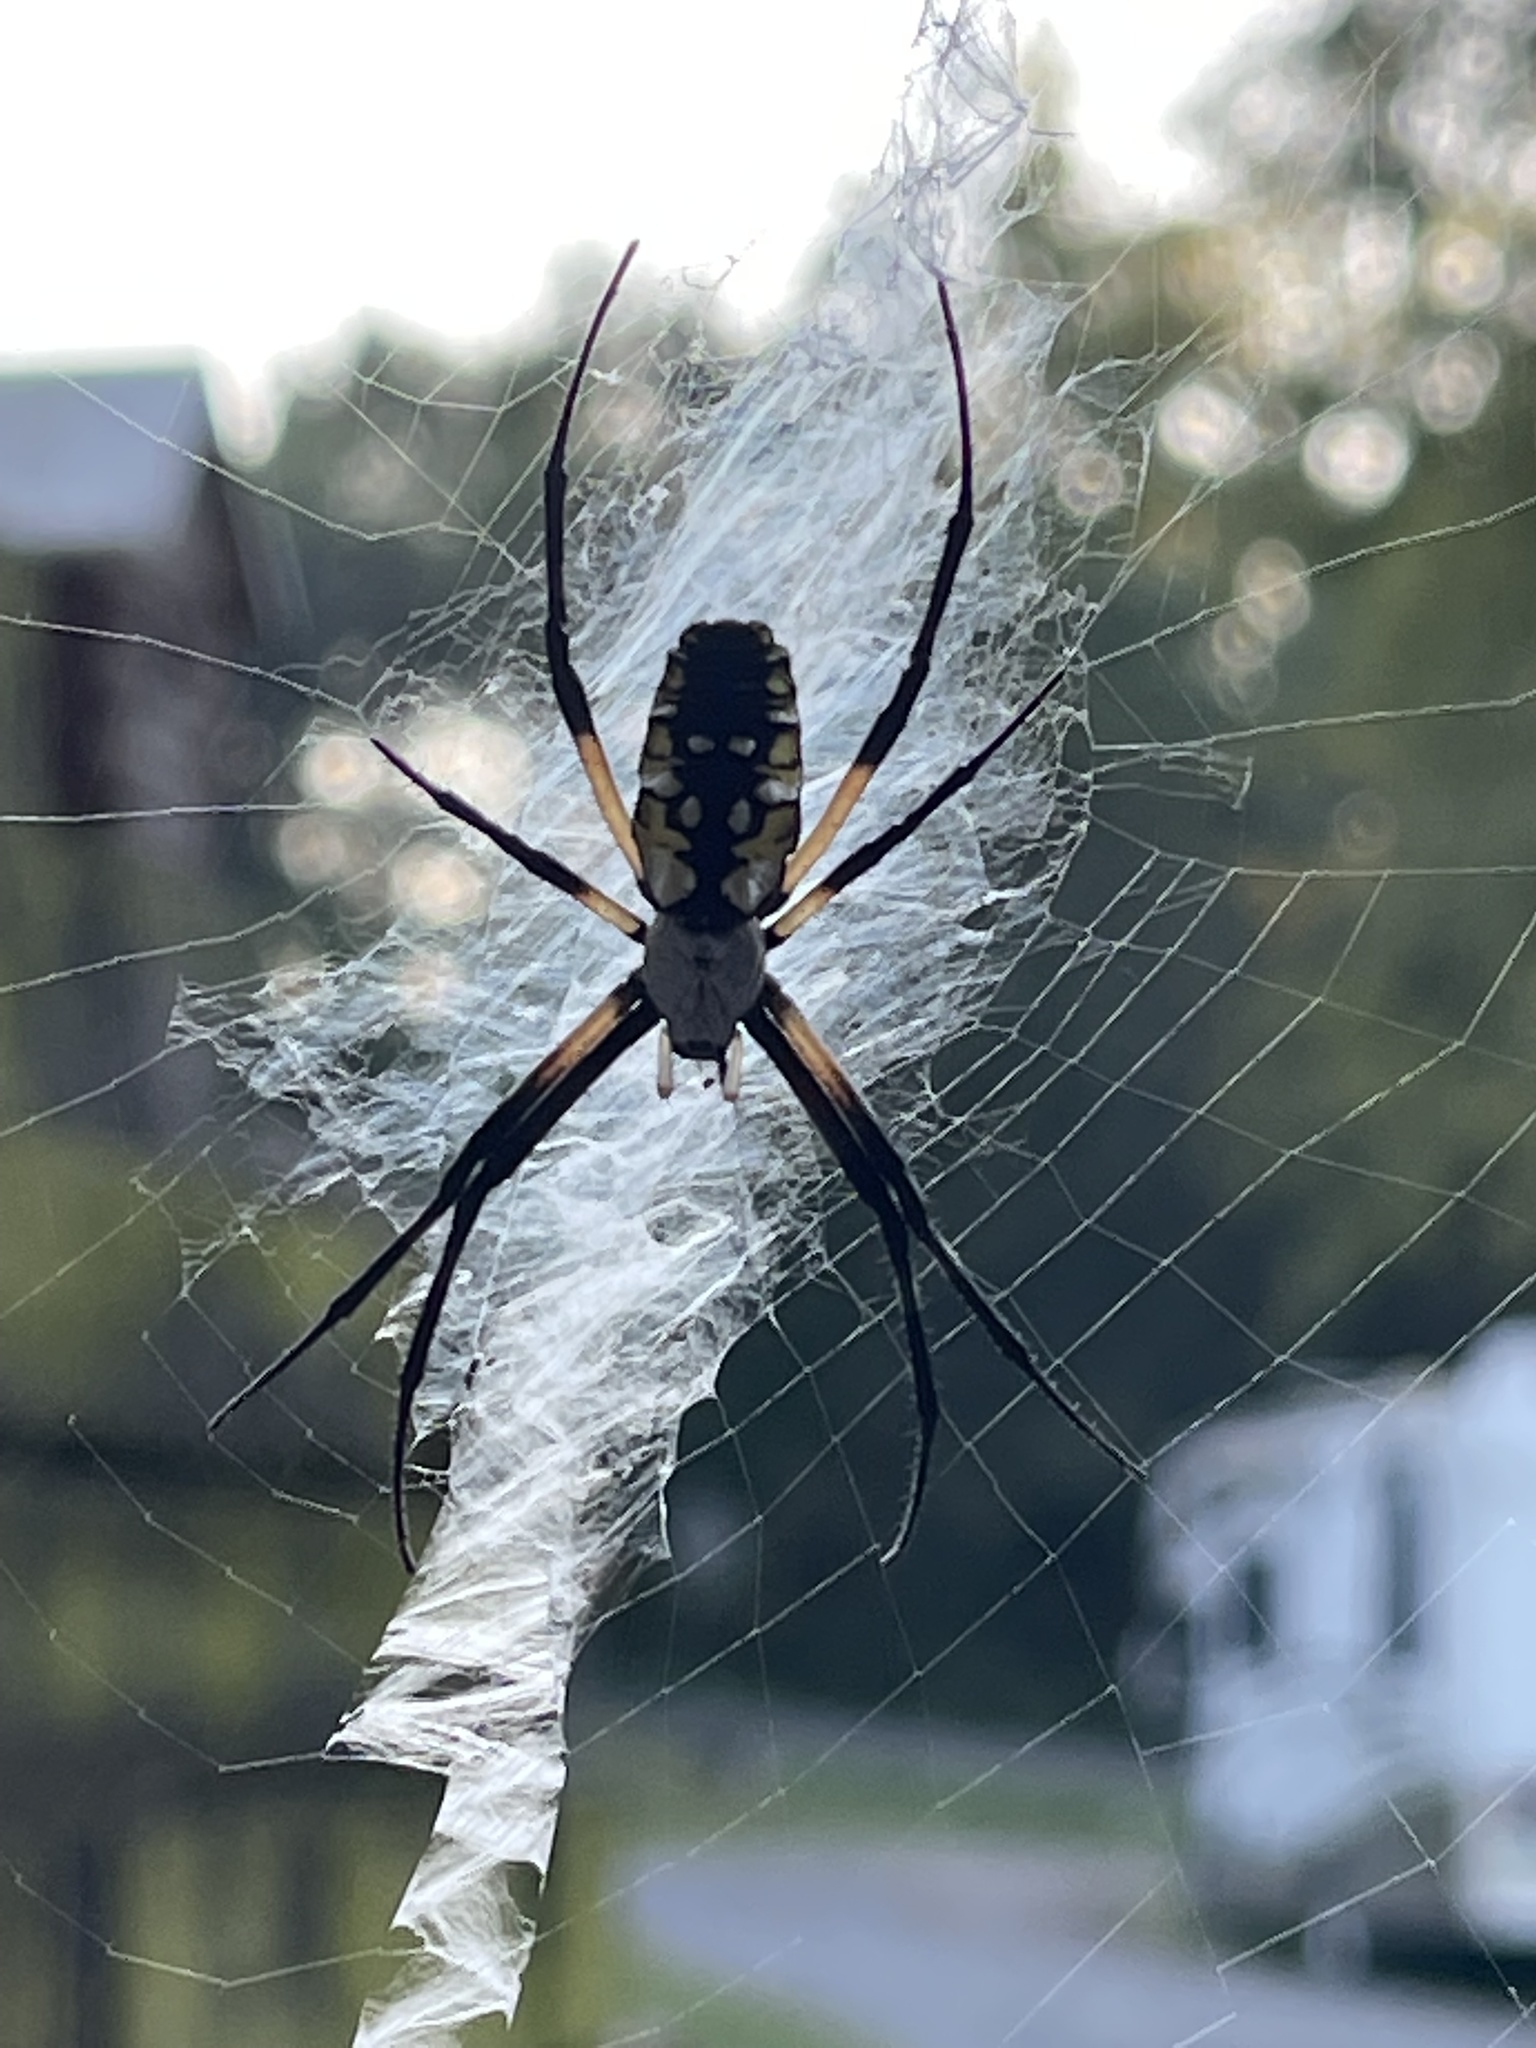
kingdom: Animalia
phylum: Arthropoda
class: Arachnida
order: Araneae
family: Araneidae
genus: Argiope
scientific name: Argiope aurantia
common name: Orb weavers
